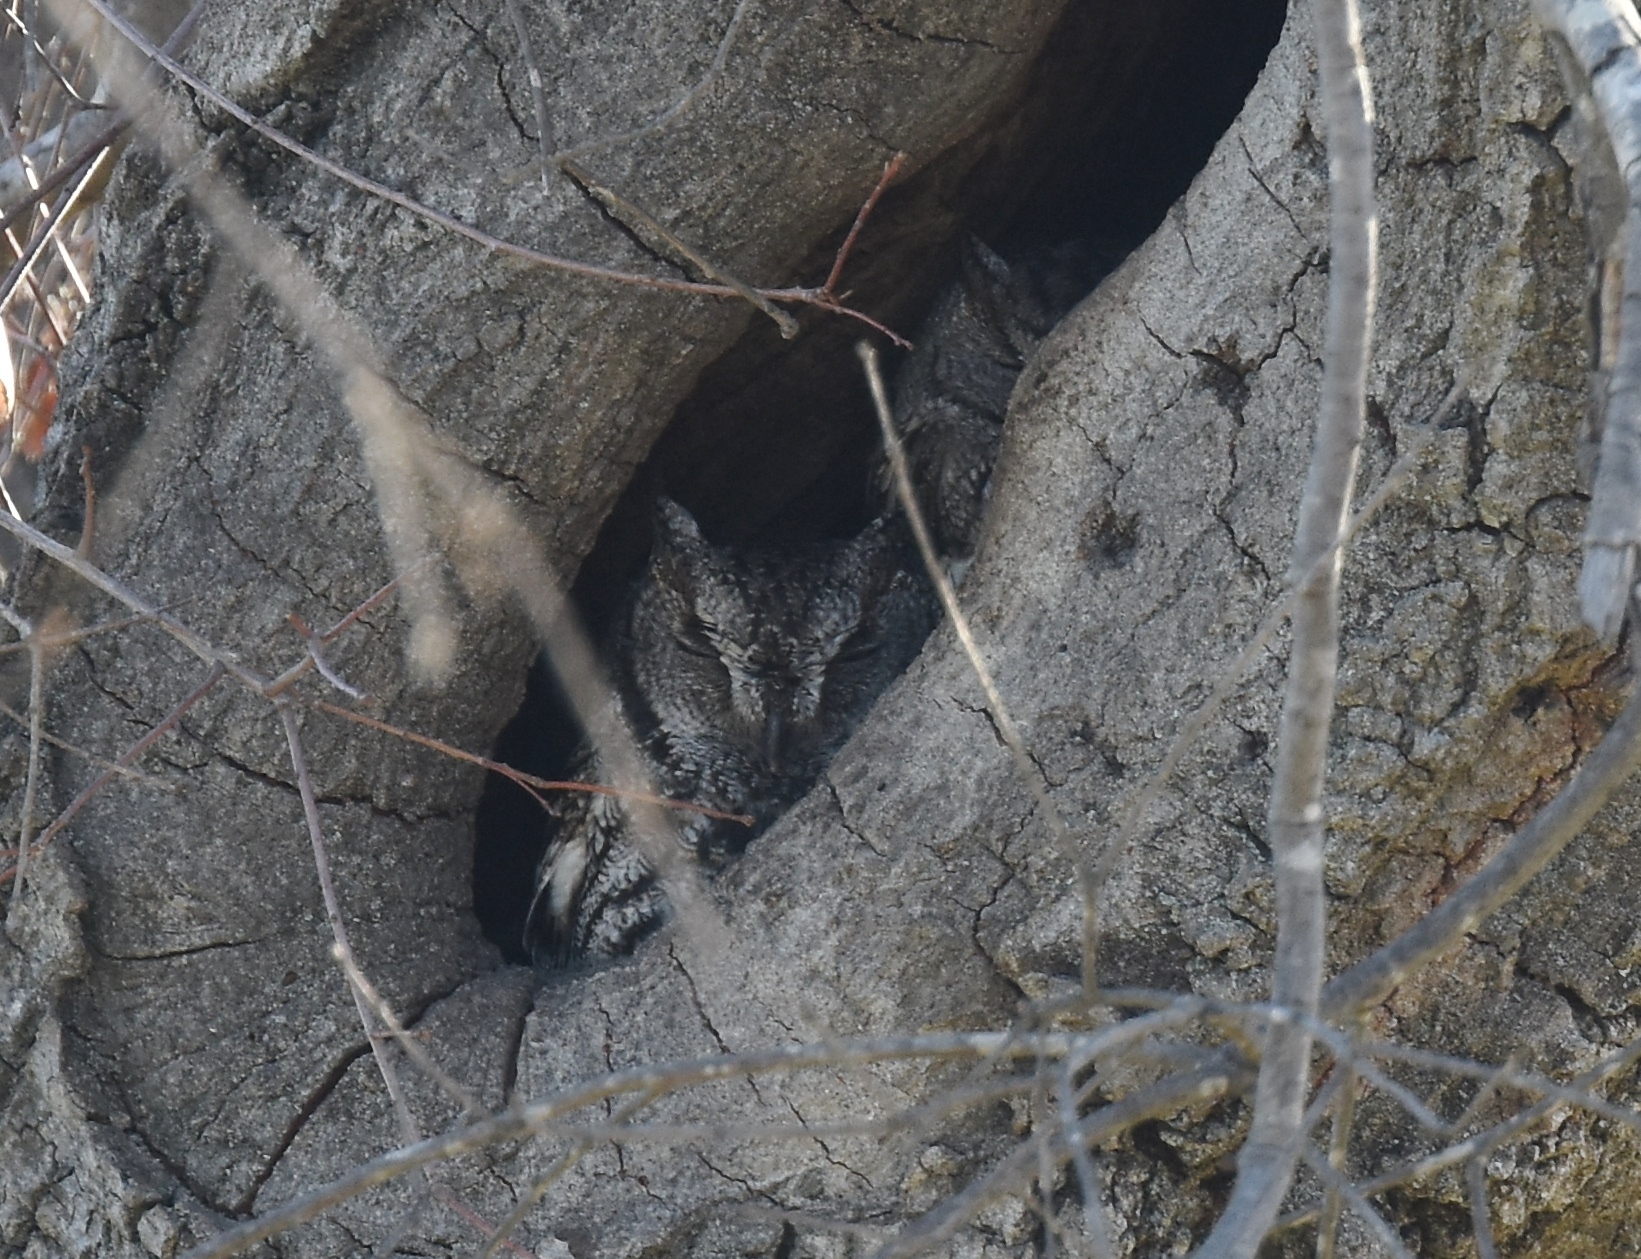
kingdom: Animalia
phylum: Chordata
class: Aves
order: Strigiformes
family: Strigidae
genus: Megascops
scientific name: Megascops kennicottii
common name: Western screech-owl
